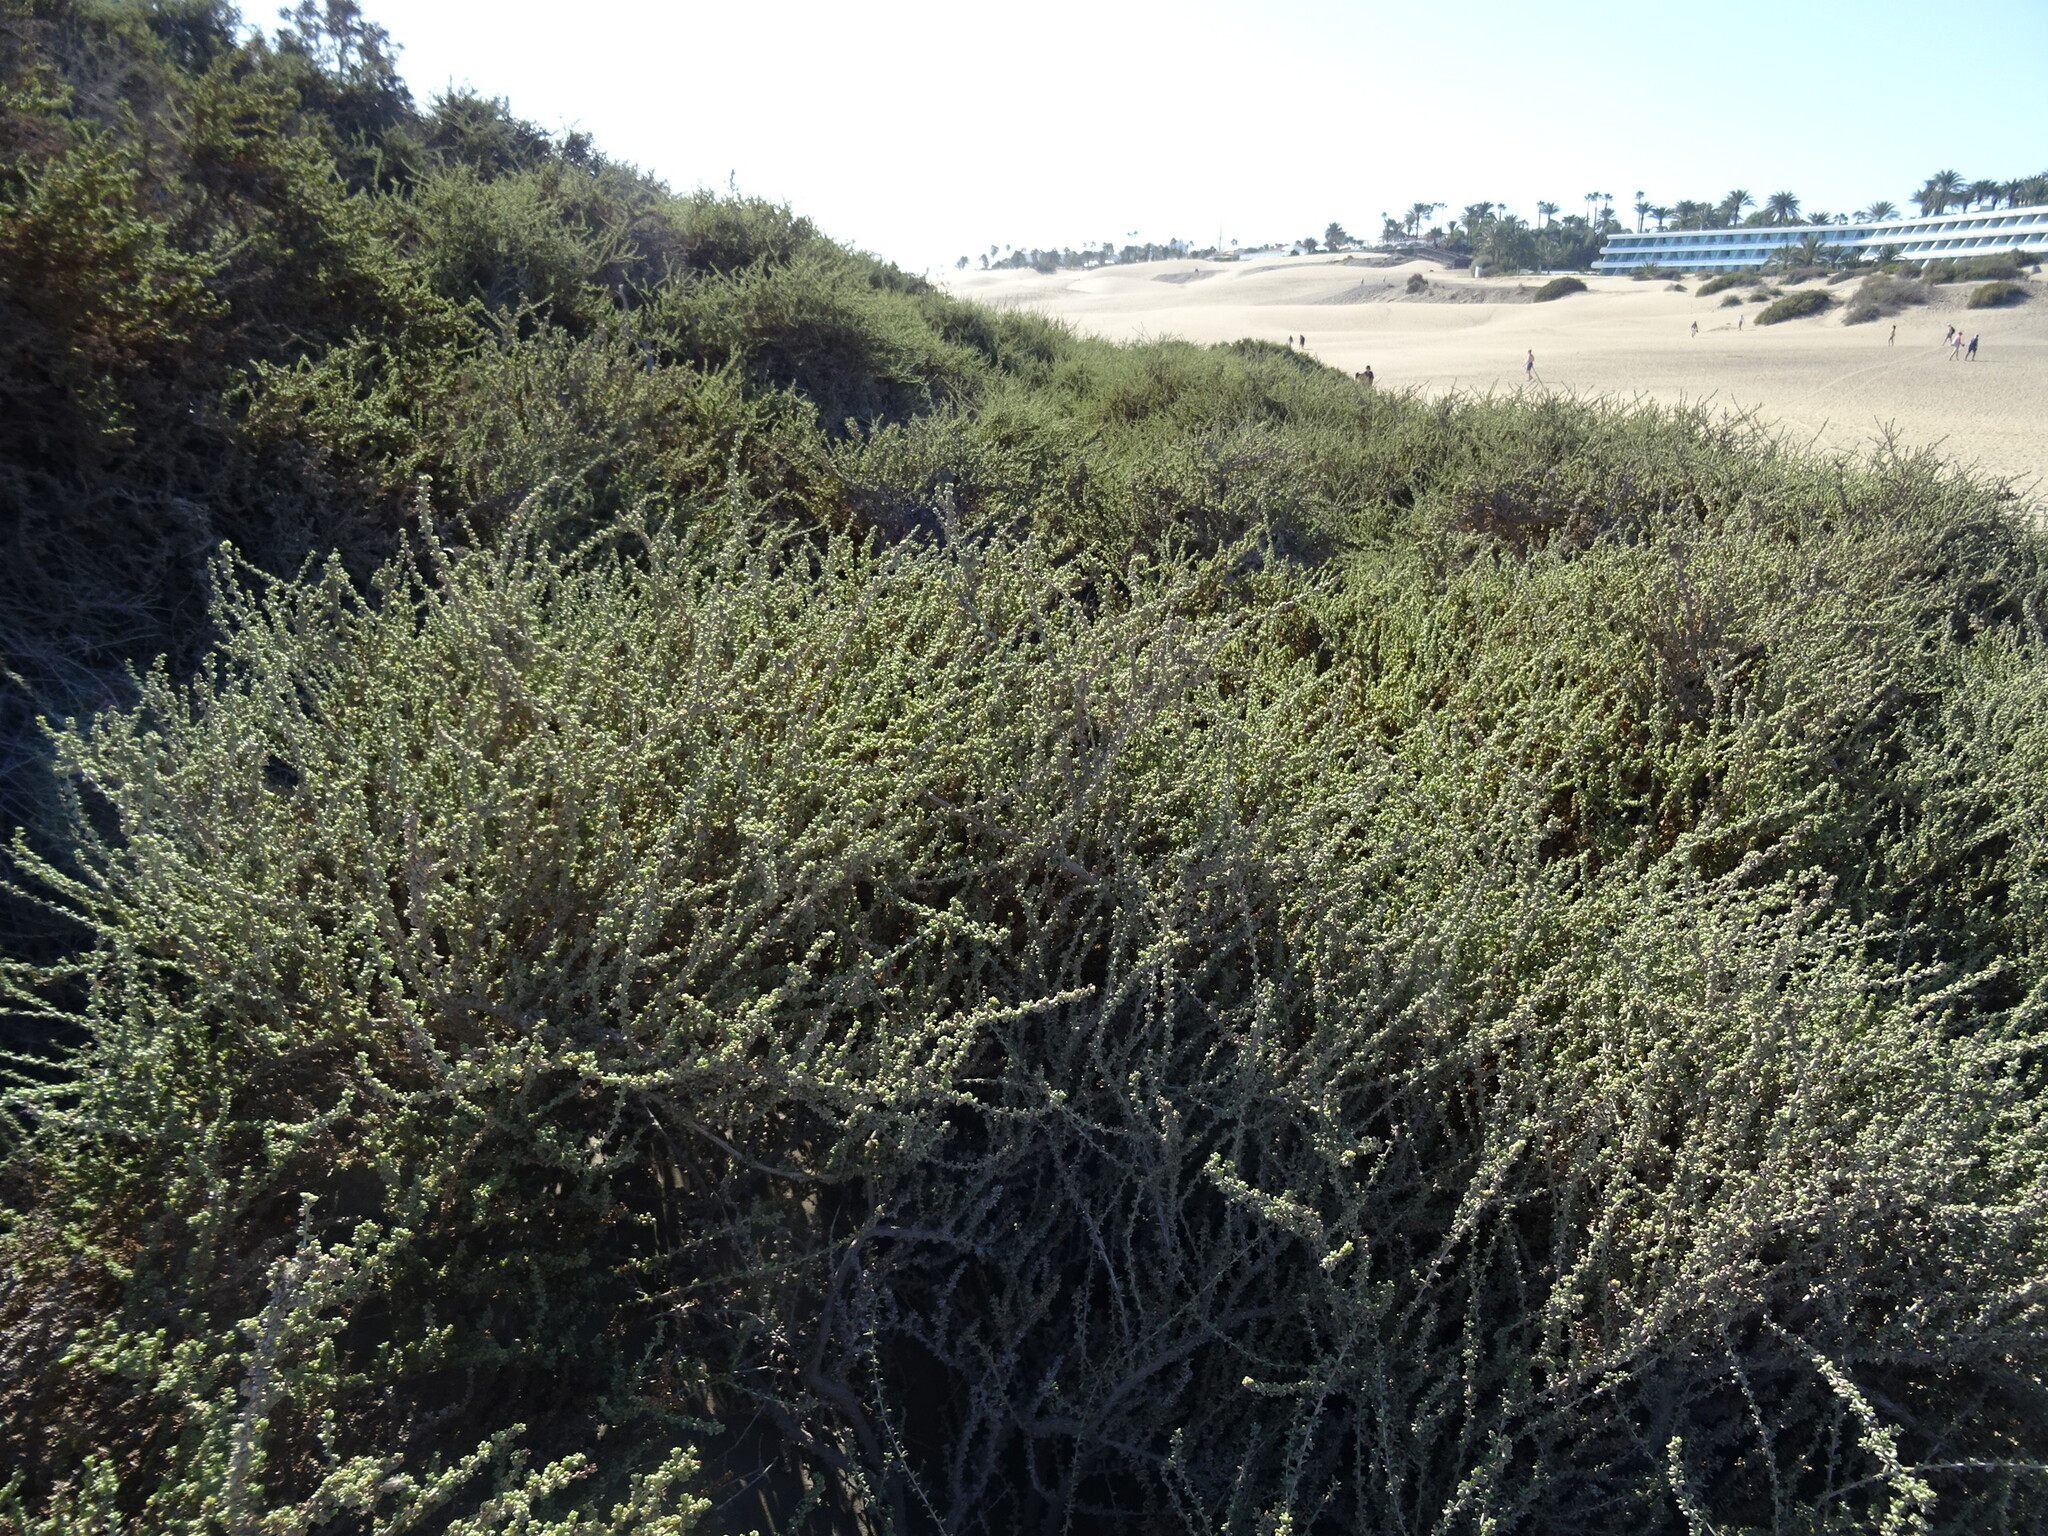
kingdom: Plantae
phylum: Tracheophyta
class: Magnoliopsida
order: Caryophyllales
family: Amaranthaceae
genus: Traganum
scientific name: Traganum moquinii
